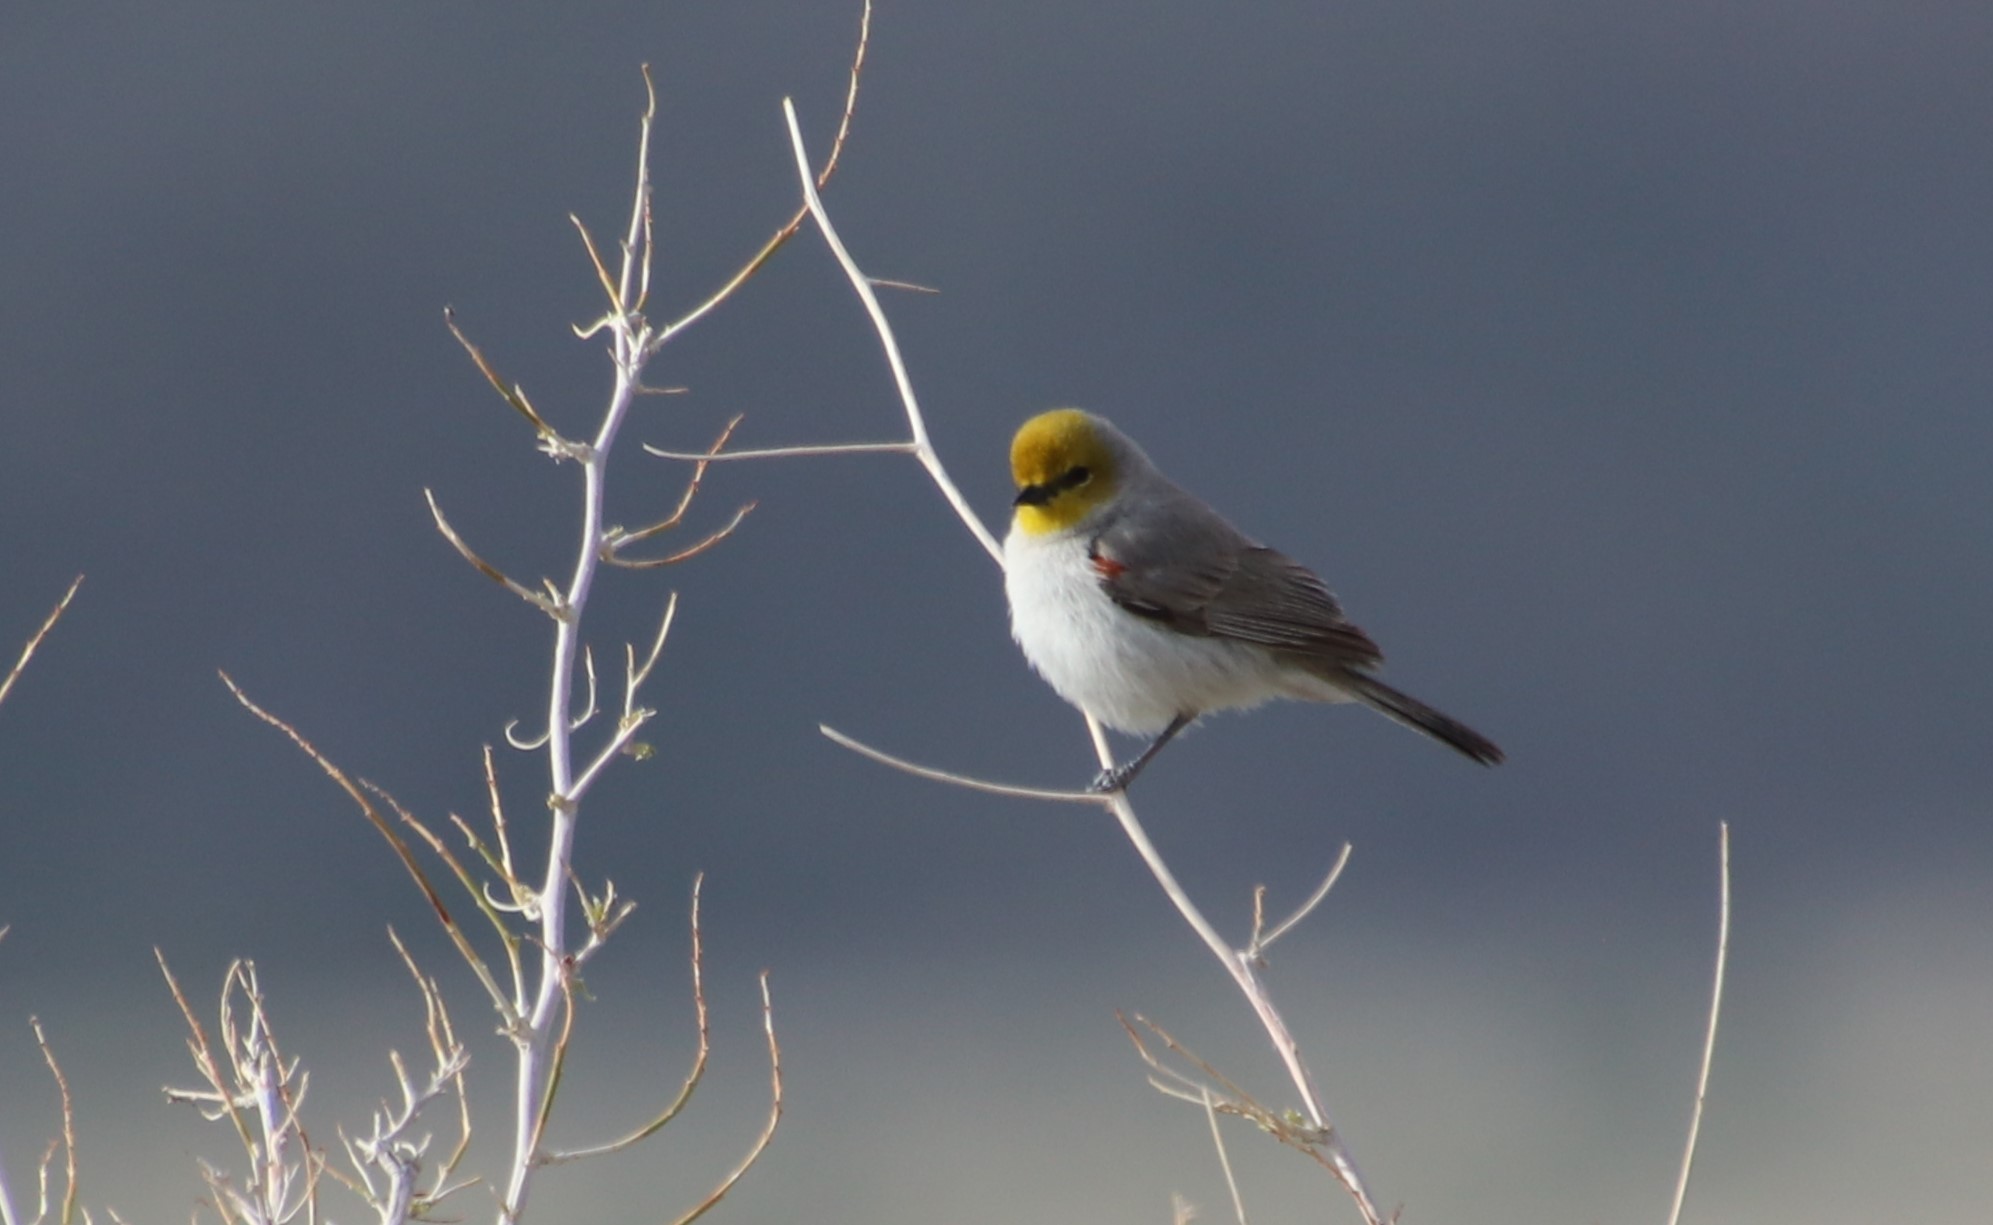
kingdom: Animalia
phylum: Chordata
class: Aves
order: Passeriformes
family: Remizidae
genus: Auriparus
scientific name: Auriparus flaviceps
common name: Verdin
